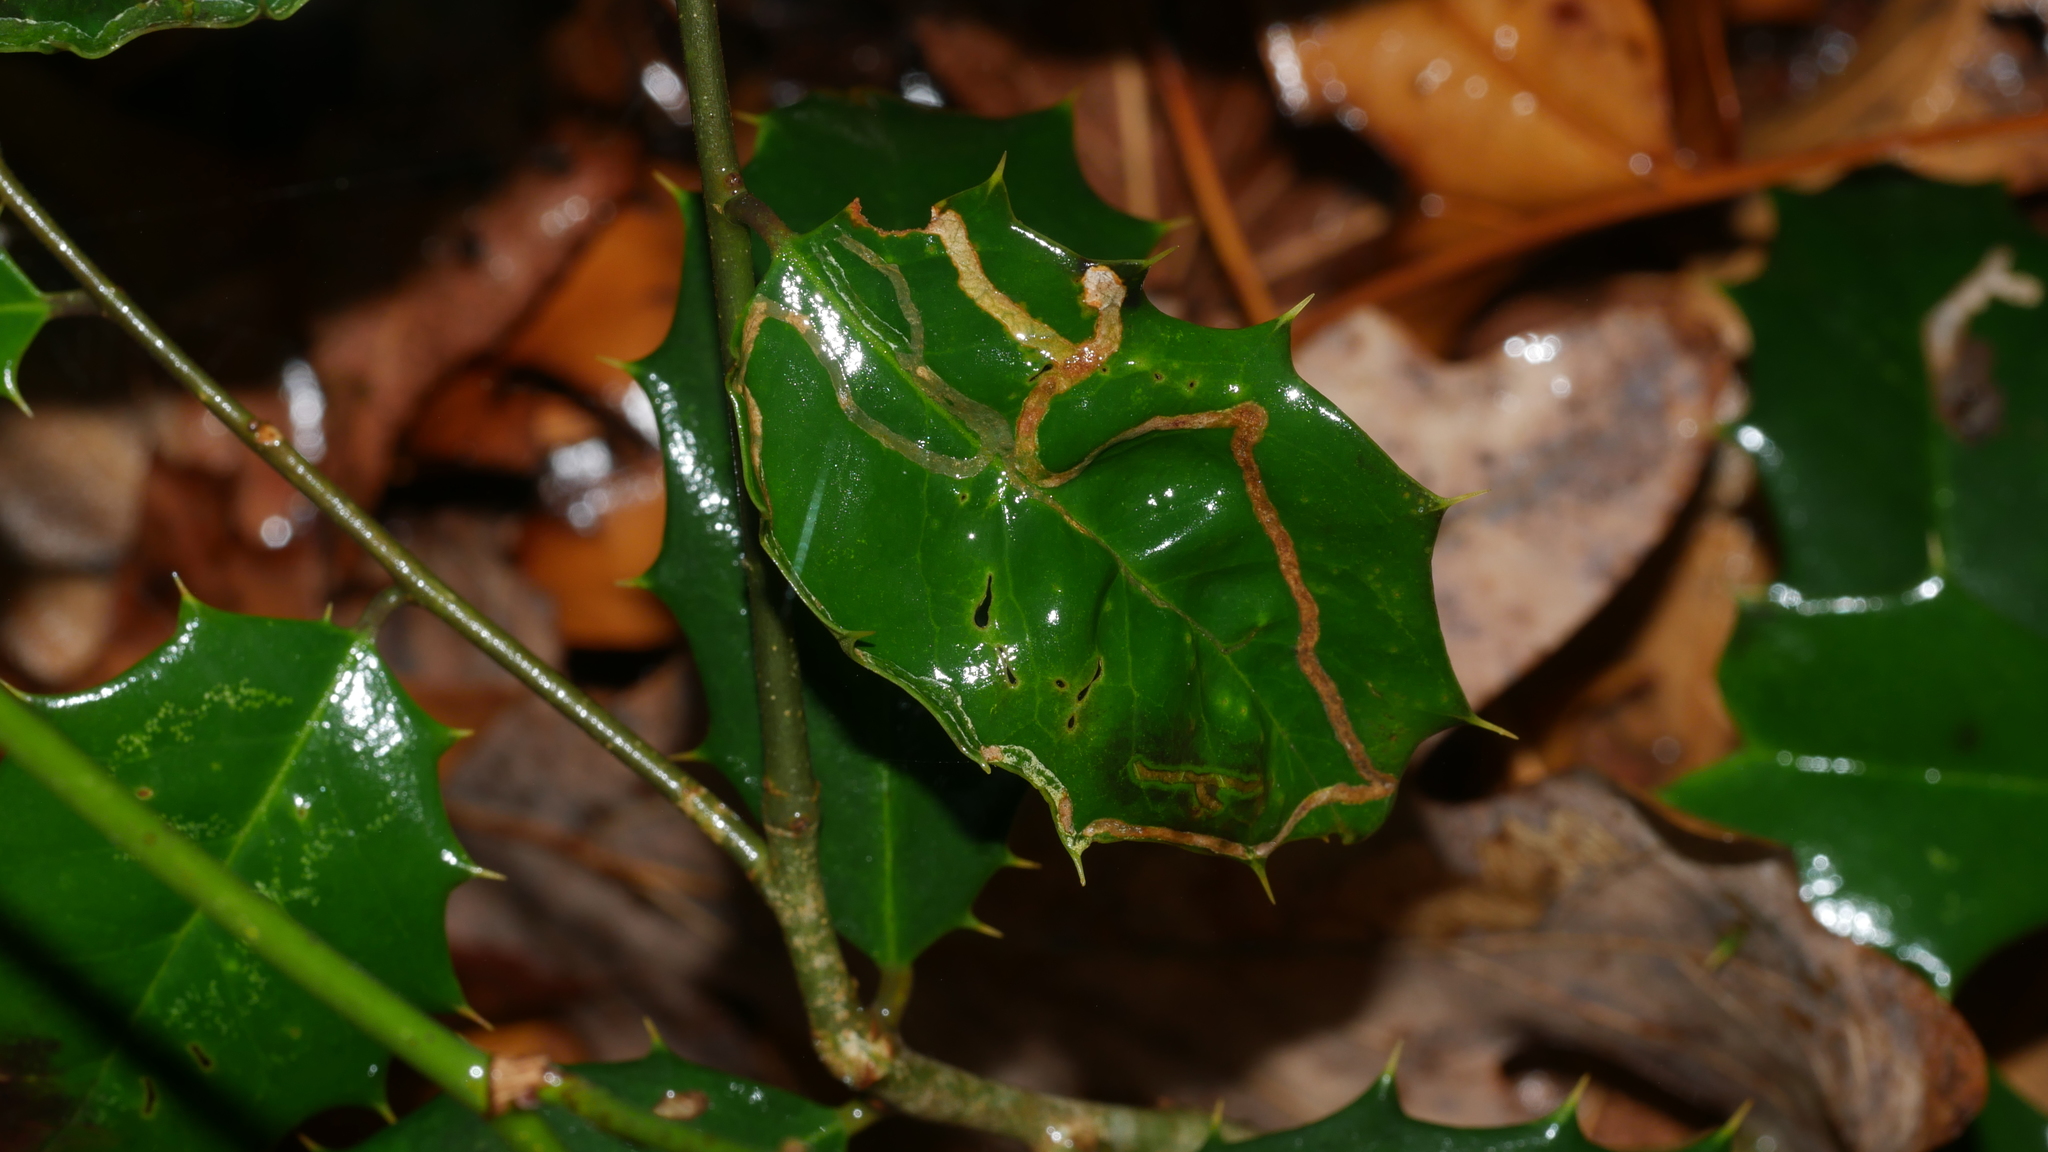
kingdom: Animalia
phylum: Arthropoda
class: Insecta
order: Diptera
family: Agromyzidae
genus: Phytomyza
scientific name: Phytomyza opacae
